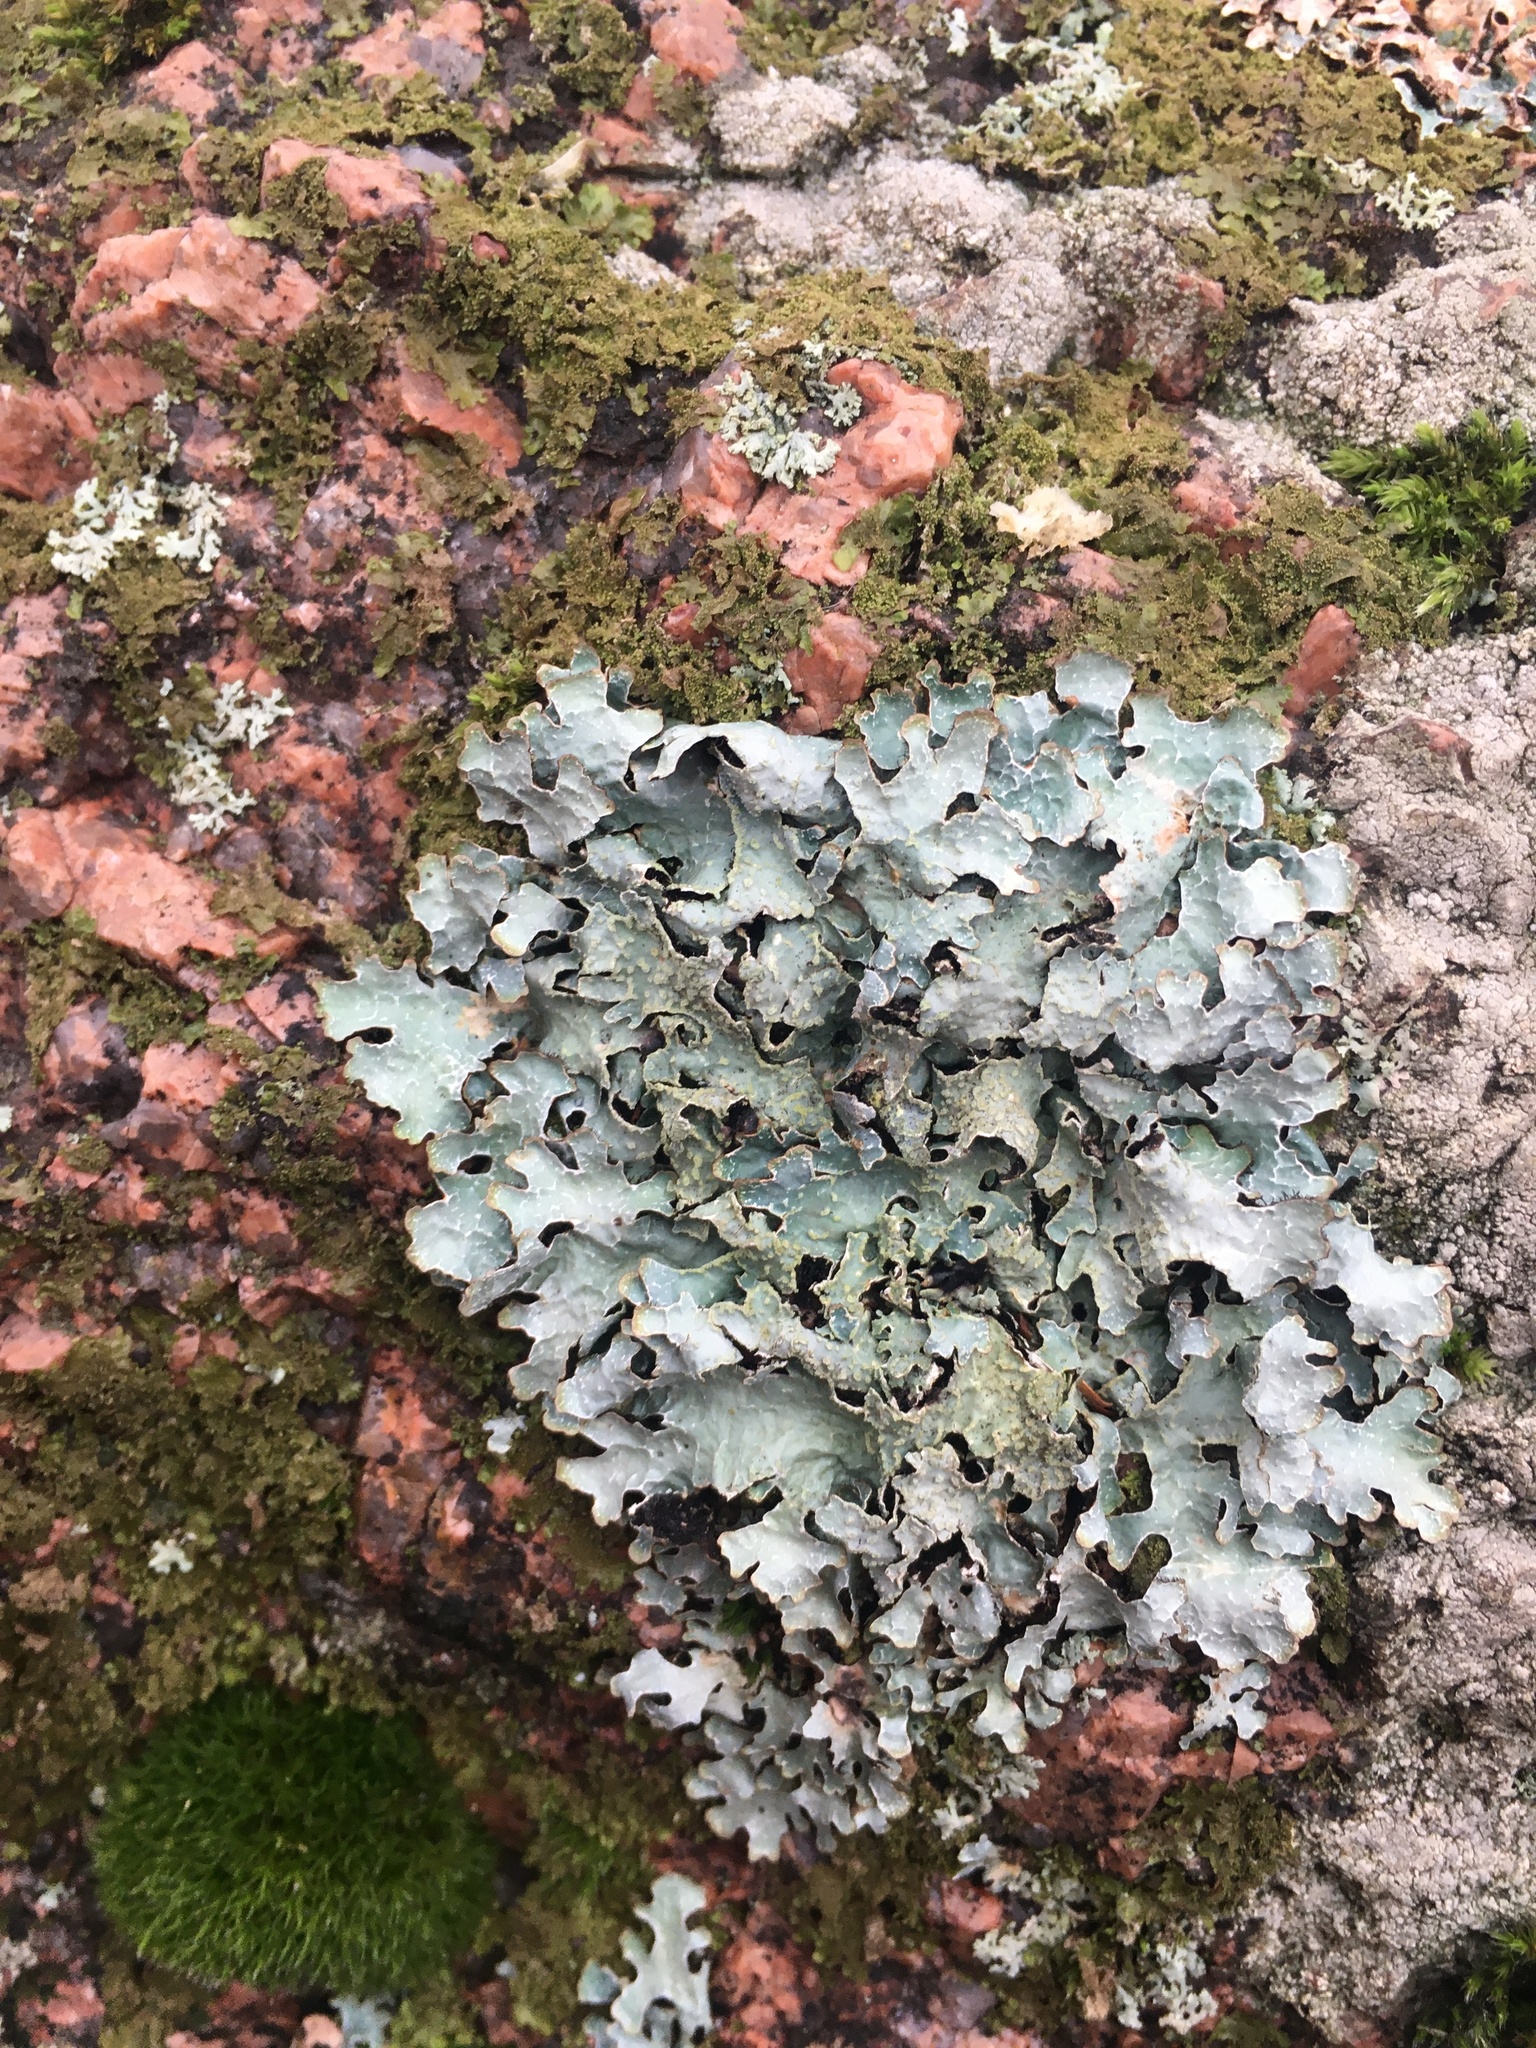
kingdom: Fungi
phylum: Ascomycota
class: Lecanoromycetes
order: Lecanorales
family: Parmeliaceae
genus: Parmelia
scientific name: Parmelia sulcata
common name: Netted shield lichen
